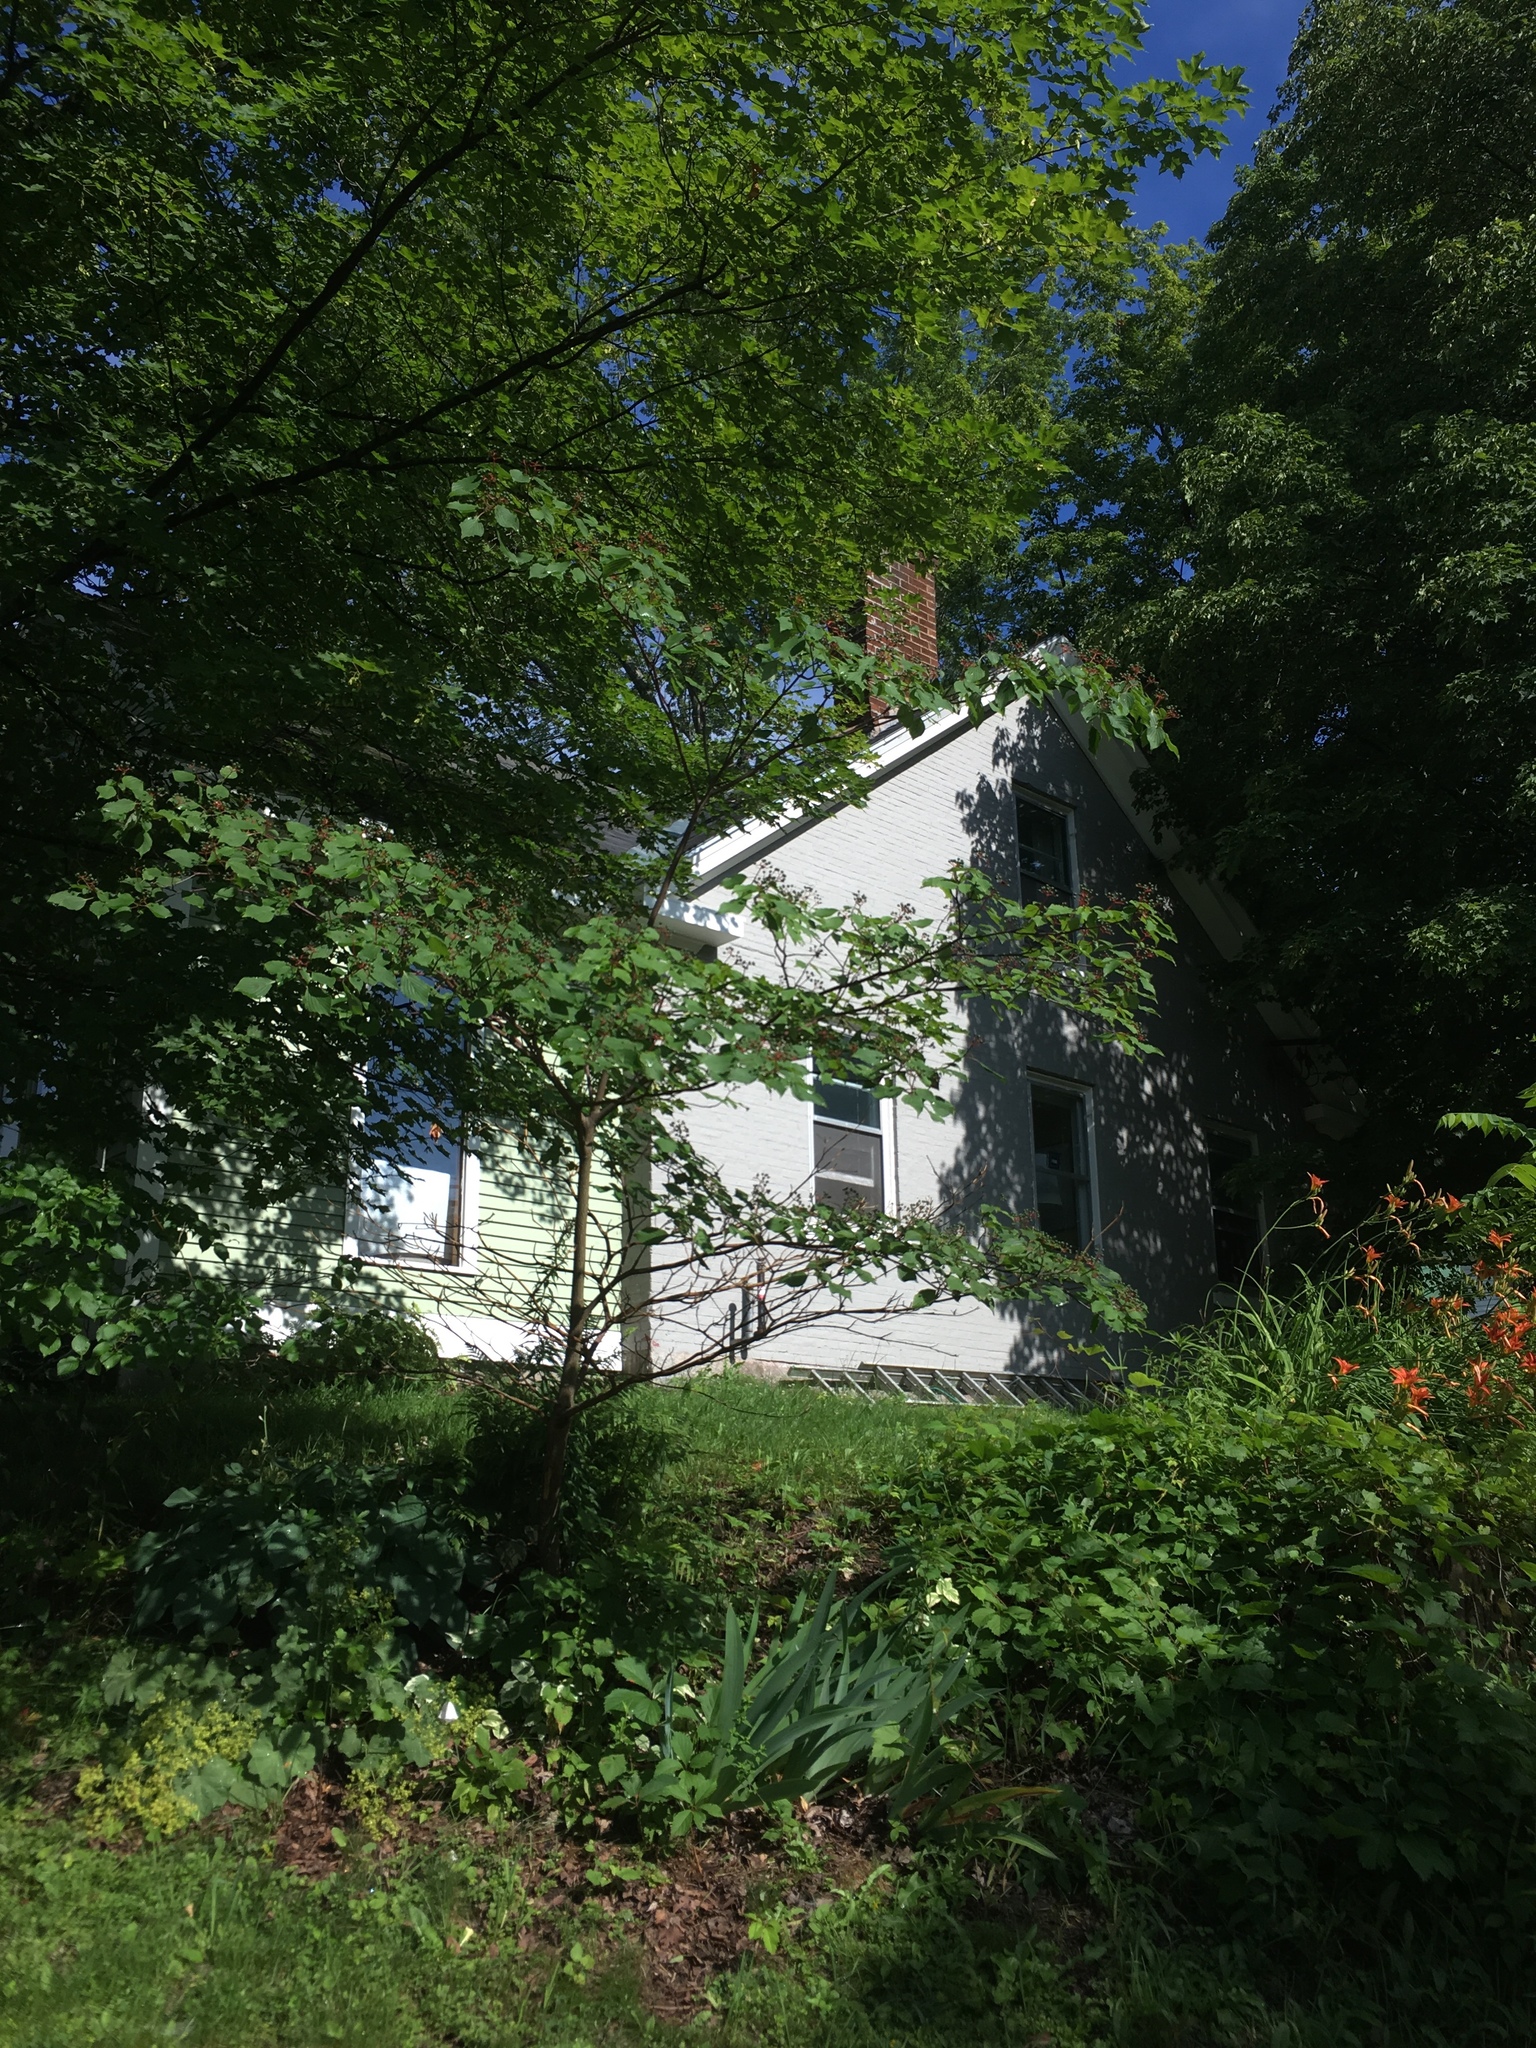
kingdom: Plantae
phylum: Tracheophyta
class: Magnoliopsida
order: Cornales
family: Cornaceae
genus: Cornus
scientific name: Cornus alternifolia
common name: Pagoda dogwood
